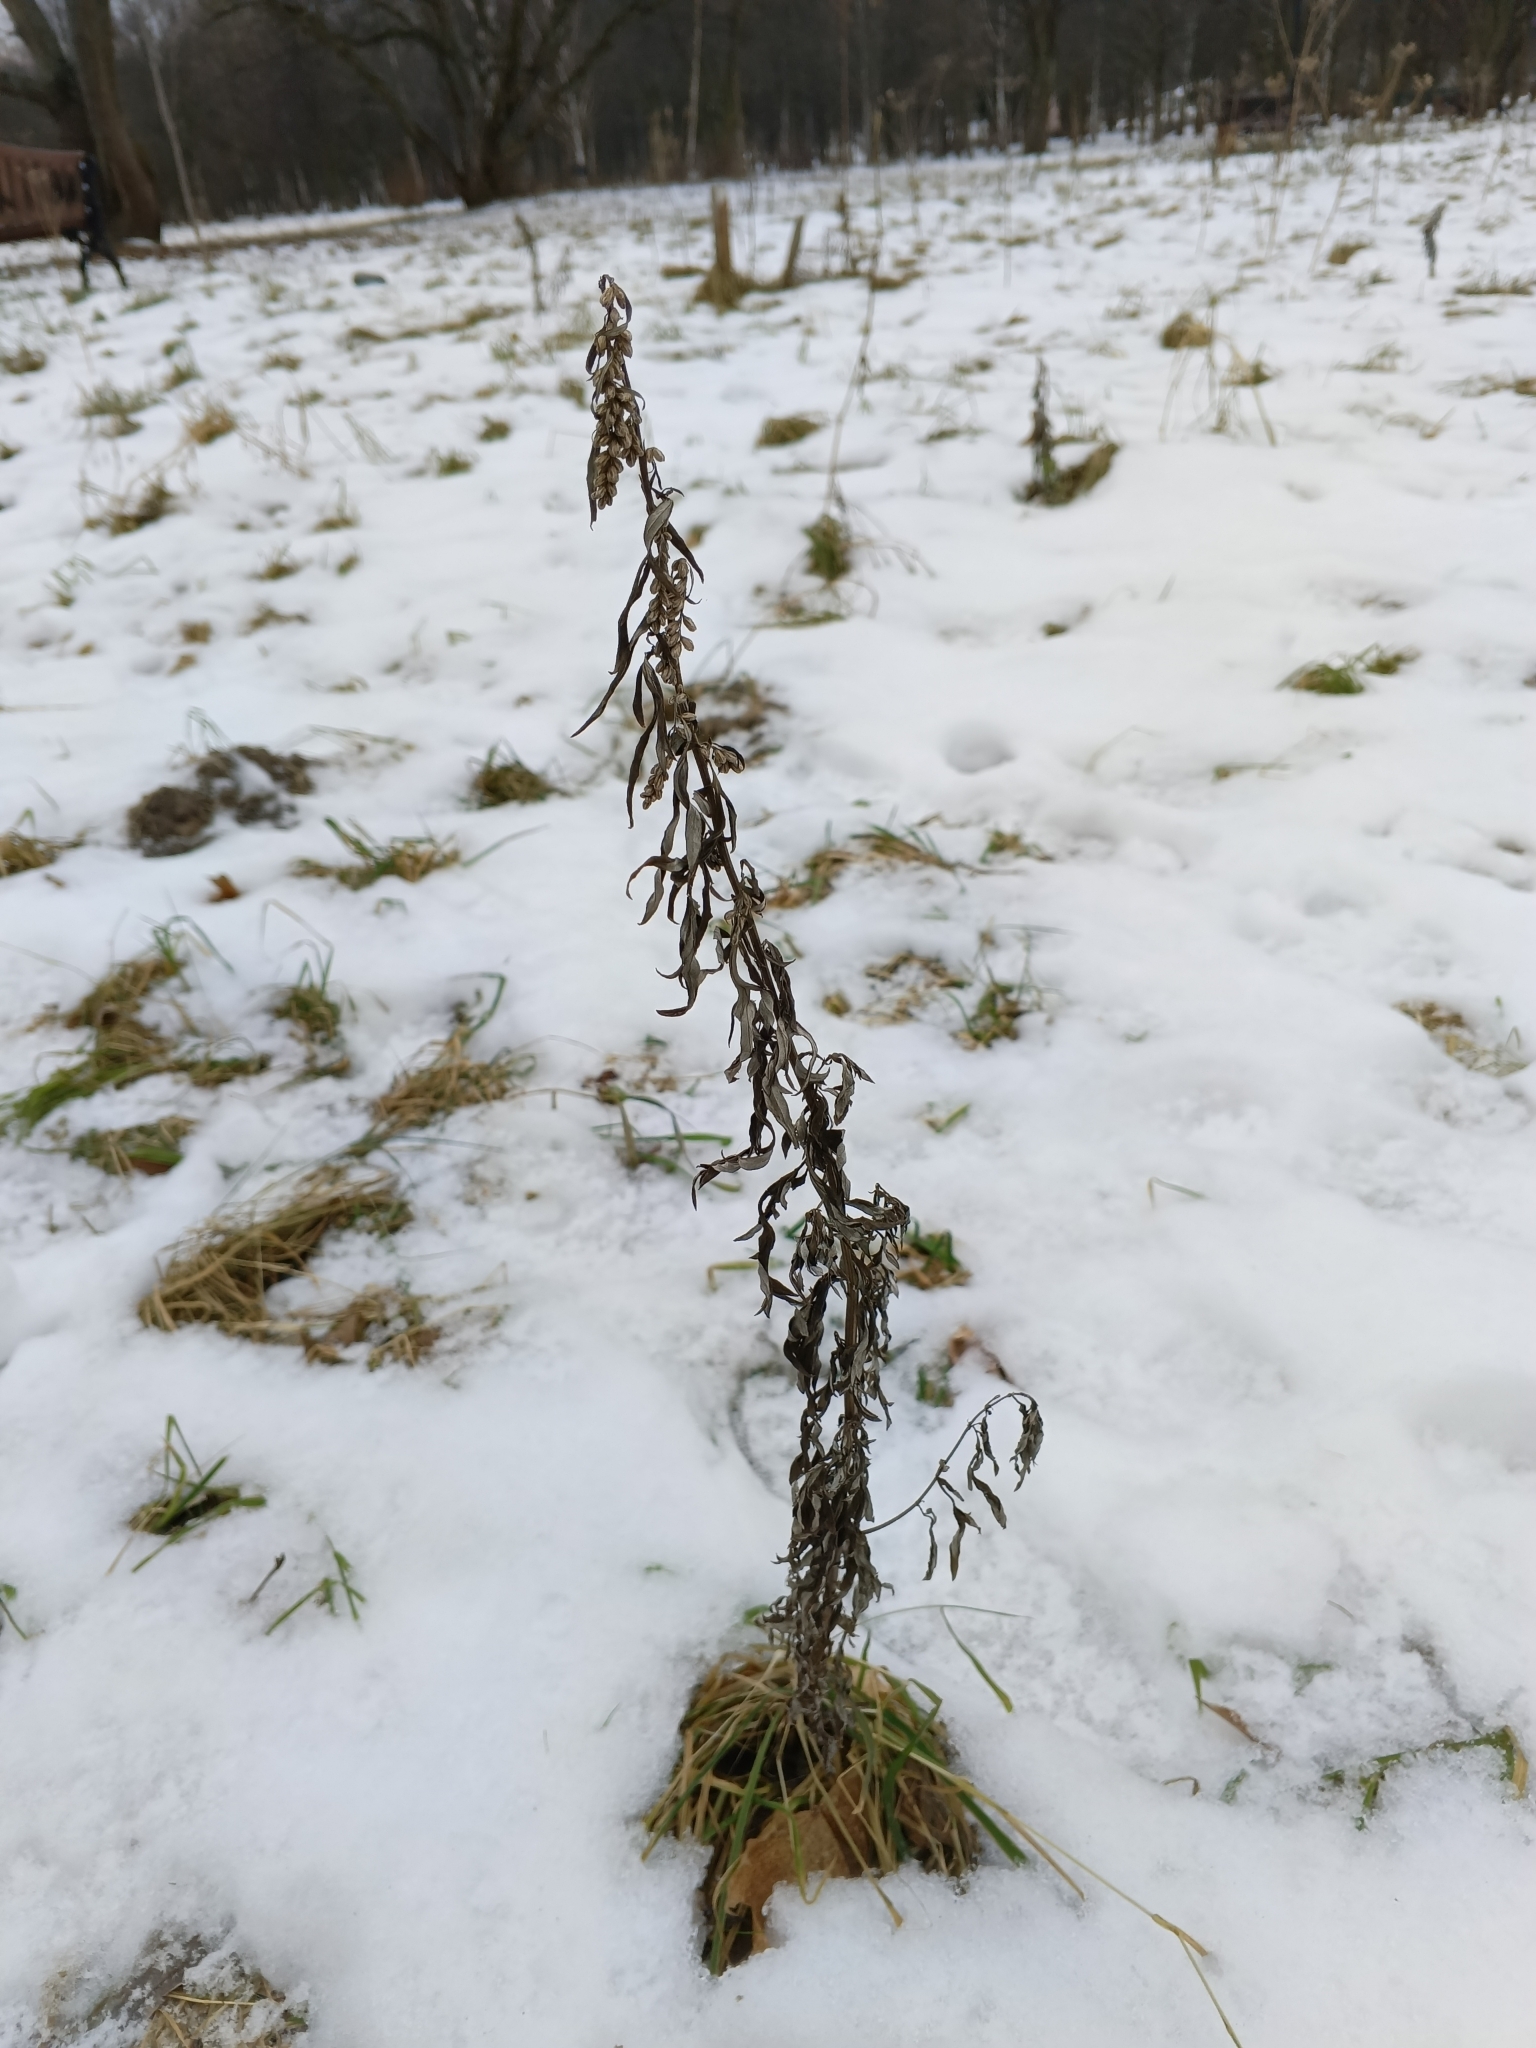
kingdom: Plantae
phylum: Tracheophyta
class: Magnoliopsida
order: Asterales
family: Asteraceae
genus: Artemisia
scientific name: Artemisia vulgaris
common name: Mugwort
